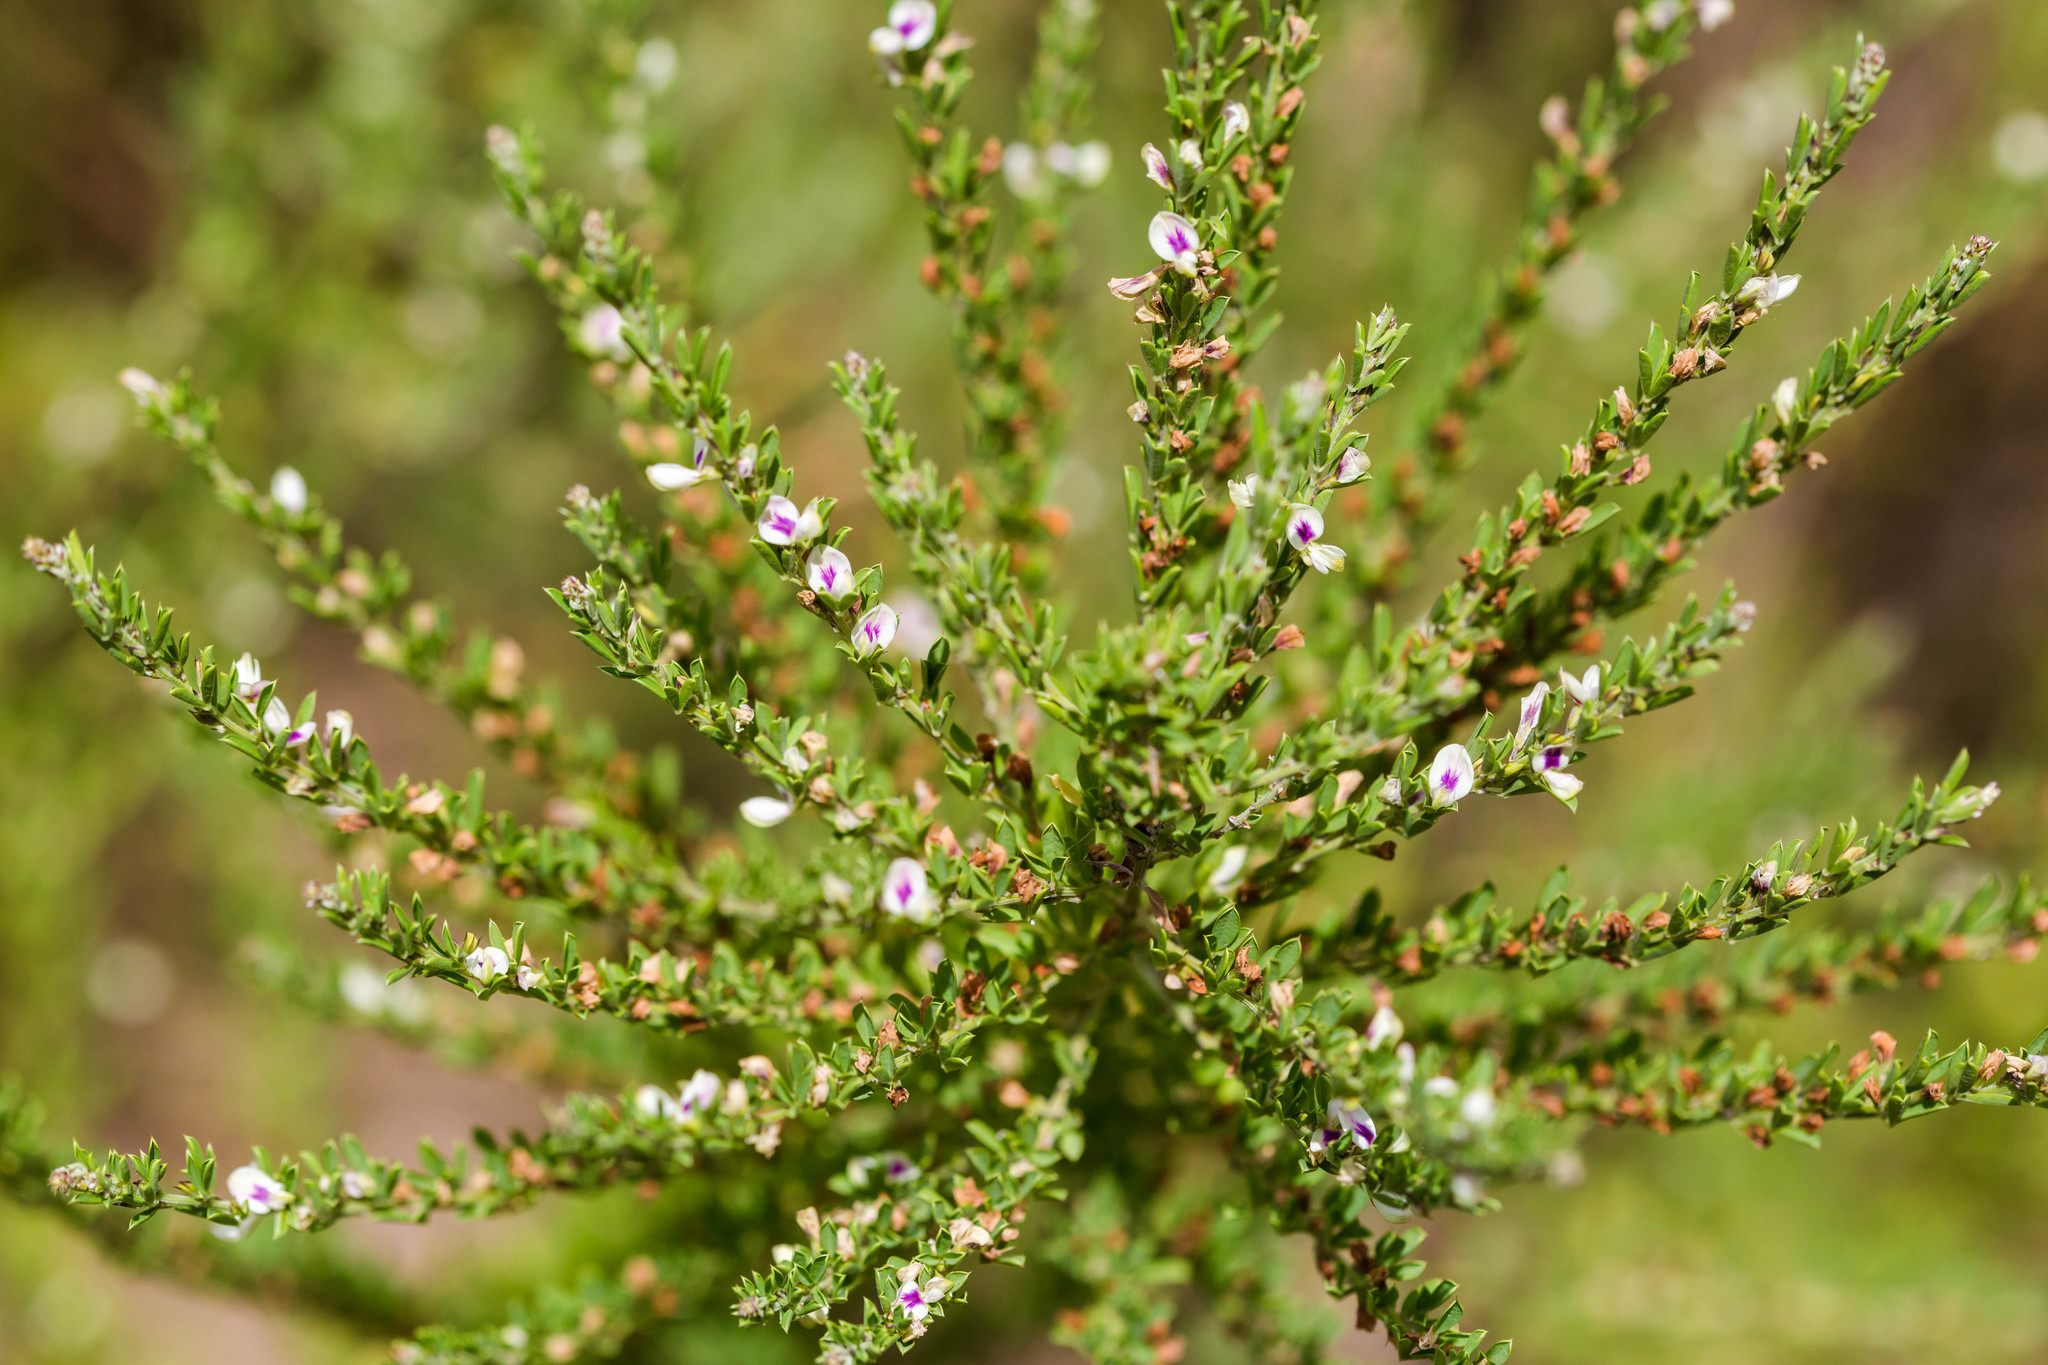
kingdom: Plantae
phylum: Tracheophyta
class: Magnoliopsida
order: Fabales
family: Fabaceae
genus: Lespedeza
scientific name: Lespedeza cuneata
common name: Chinese bush-clover
